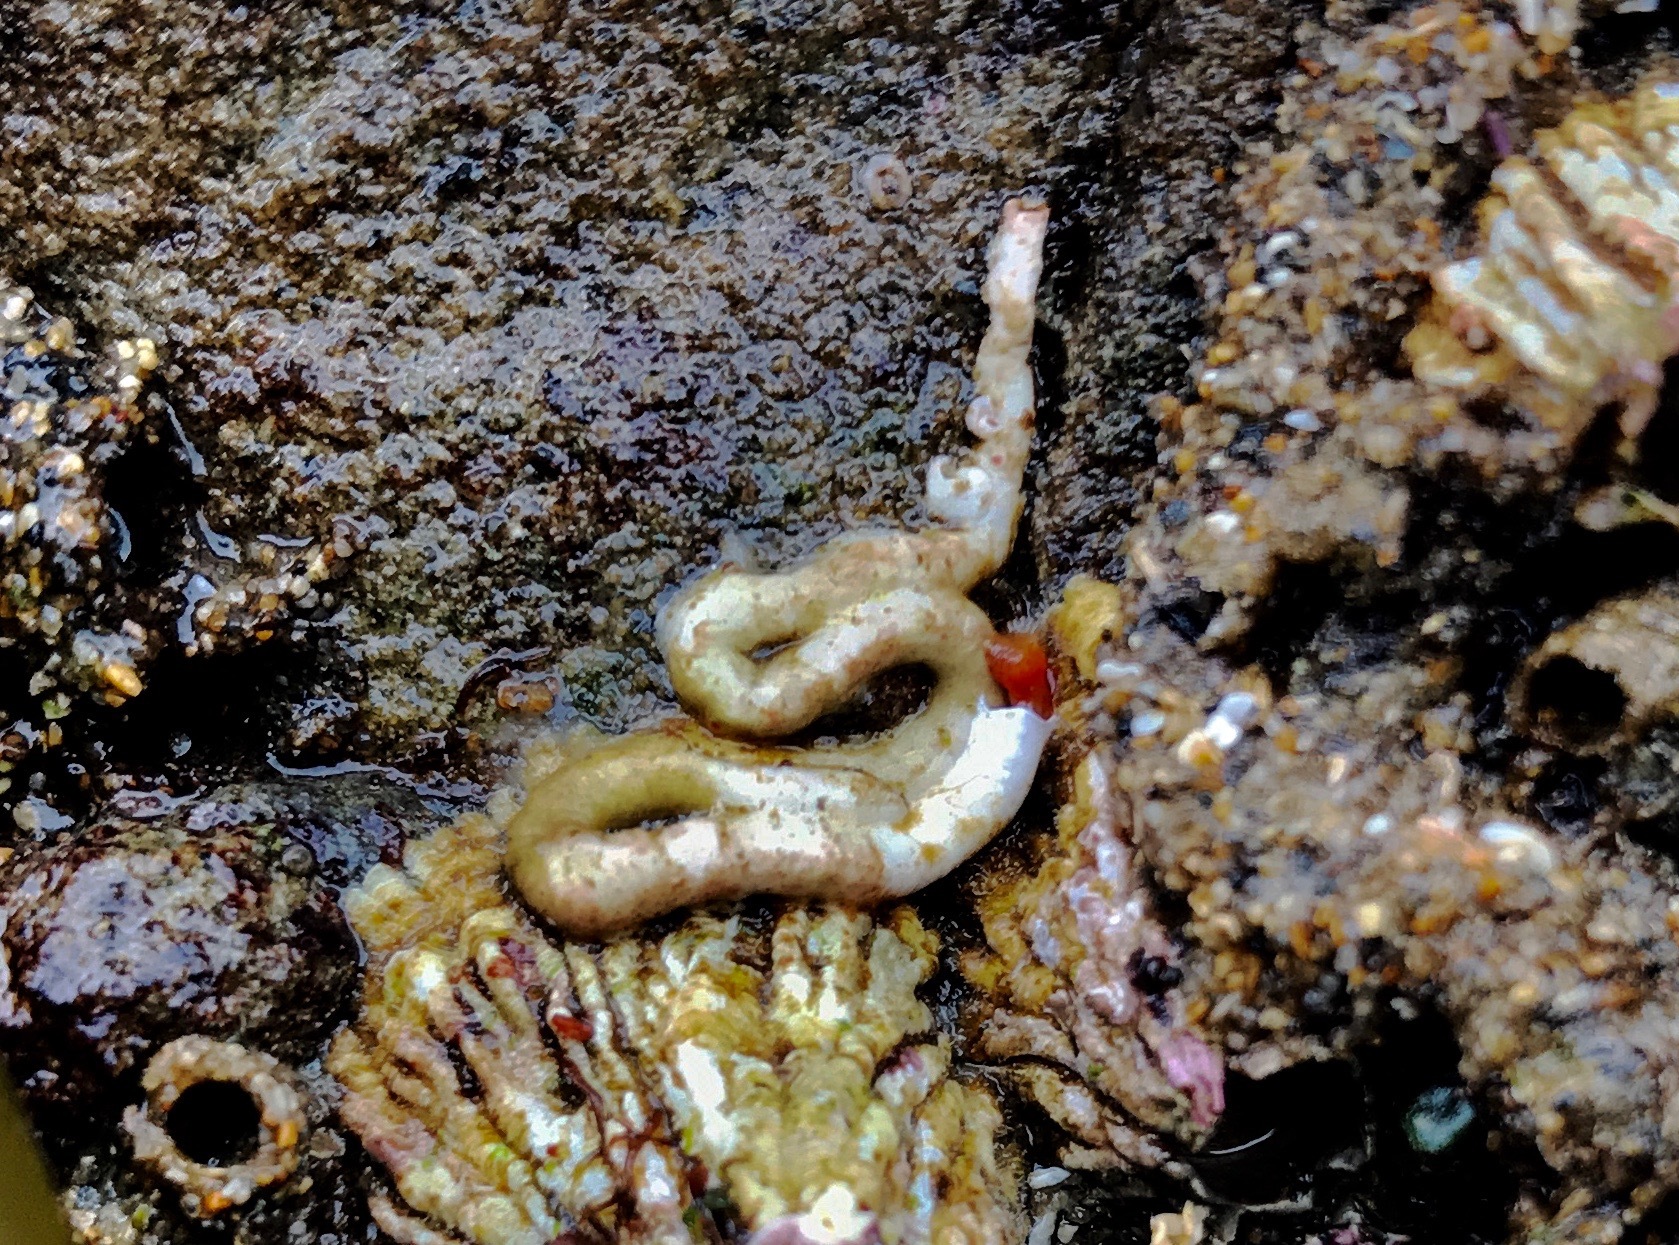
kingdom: Animalia
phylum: Annelida
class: Polychaeta
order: Sabellida
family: Serpulidae
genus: Serpula
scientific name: Serpula columbiana
